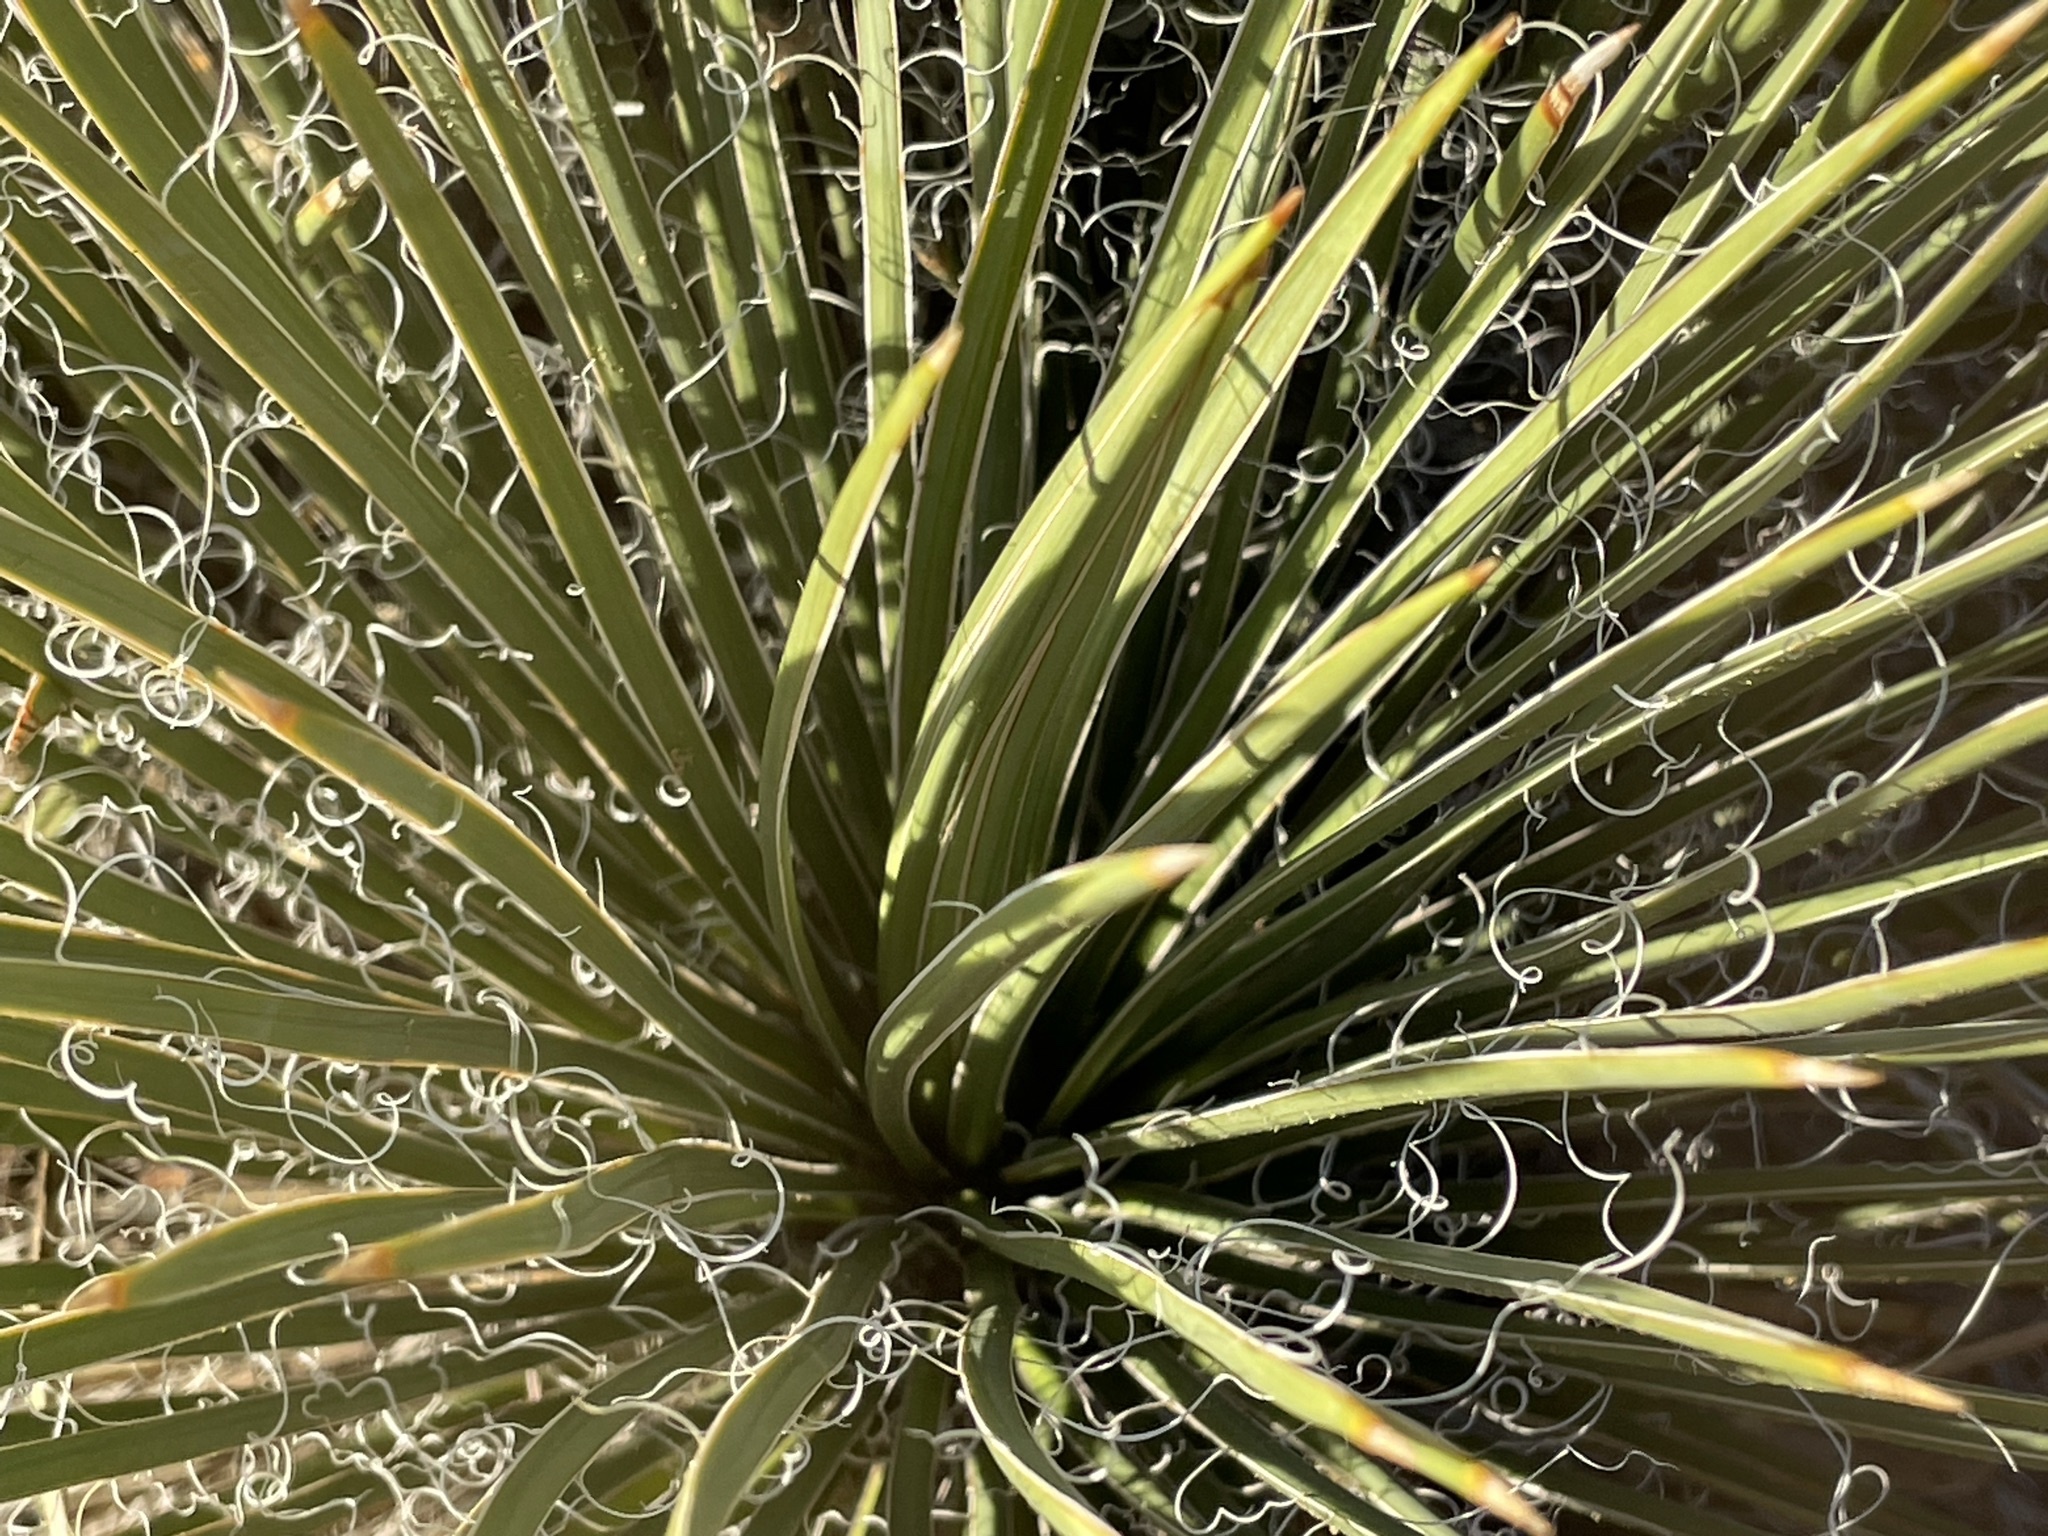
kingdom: Plantae
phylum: Tracheophyta
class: Liliopsida
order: Asparagales
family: Asparagaceae
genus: Yucca
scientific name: Yucca baileyi
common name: Alpine yucca
